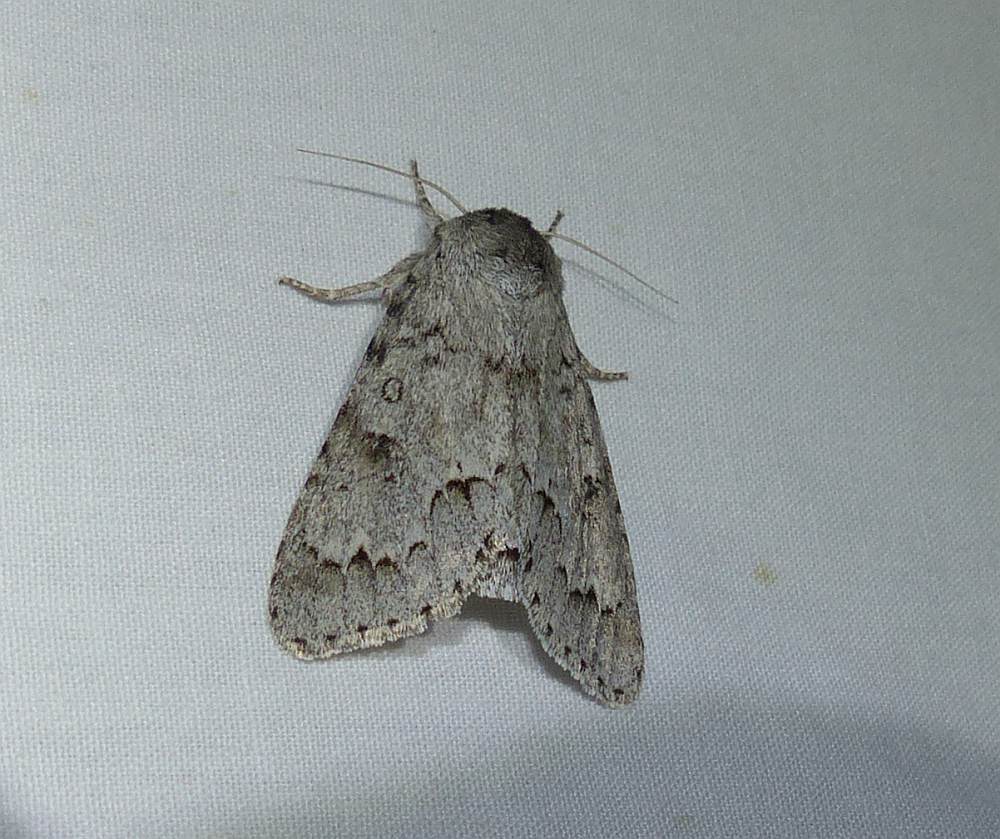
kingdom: Animalia
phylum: Arthropoda
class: Insecta
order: Lepidoptera
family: Noctuidae
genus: Acronicta
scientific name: Acronicta insita
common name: Large gray dagger
